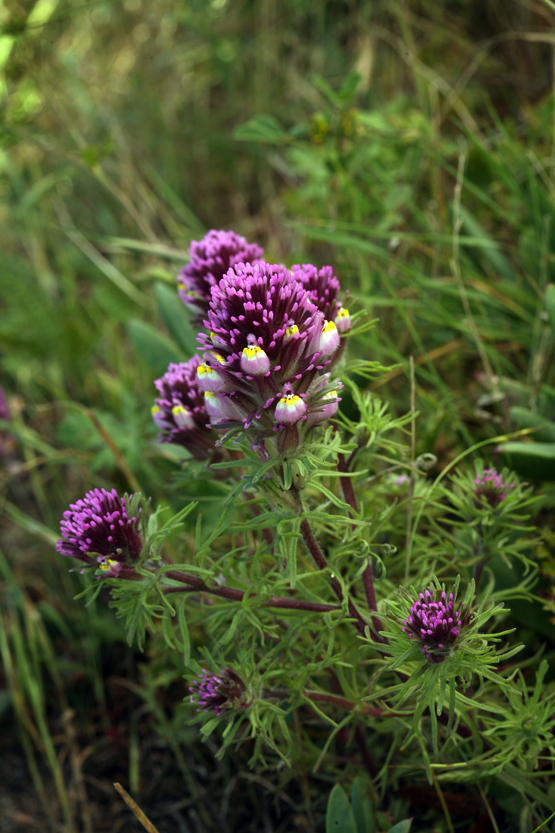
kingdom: Plantae
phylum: Tracheophyta
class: Magnoliopsida
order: Lamiales
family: Orobanchaceae
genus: Castilleja
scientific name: Castilleja exserta
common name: Purple owl-clover
